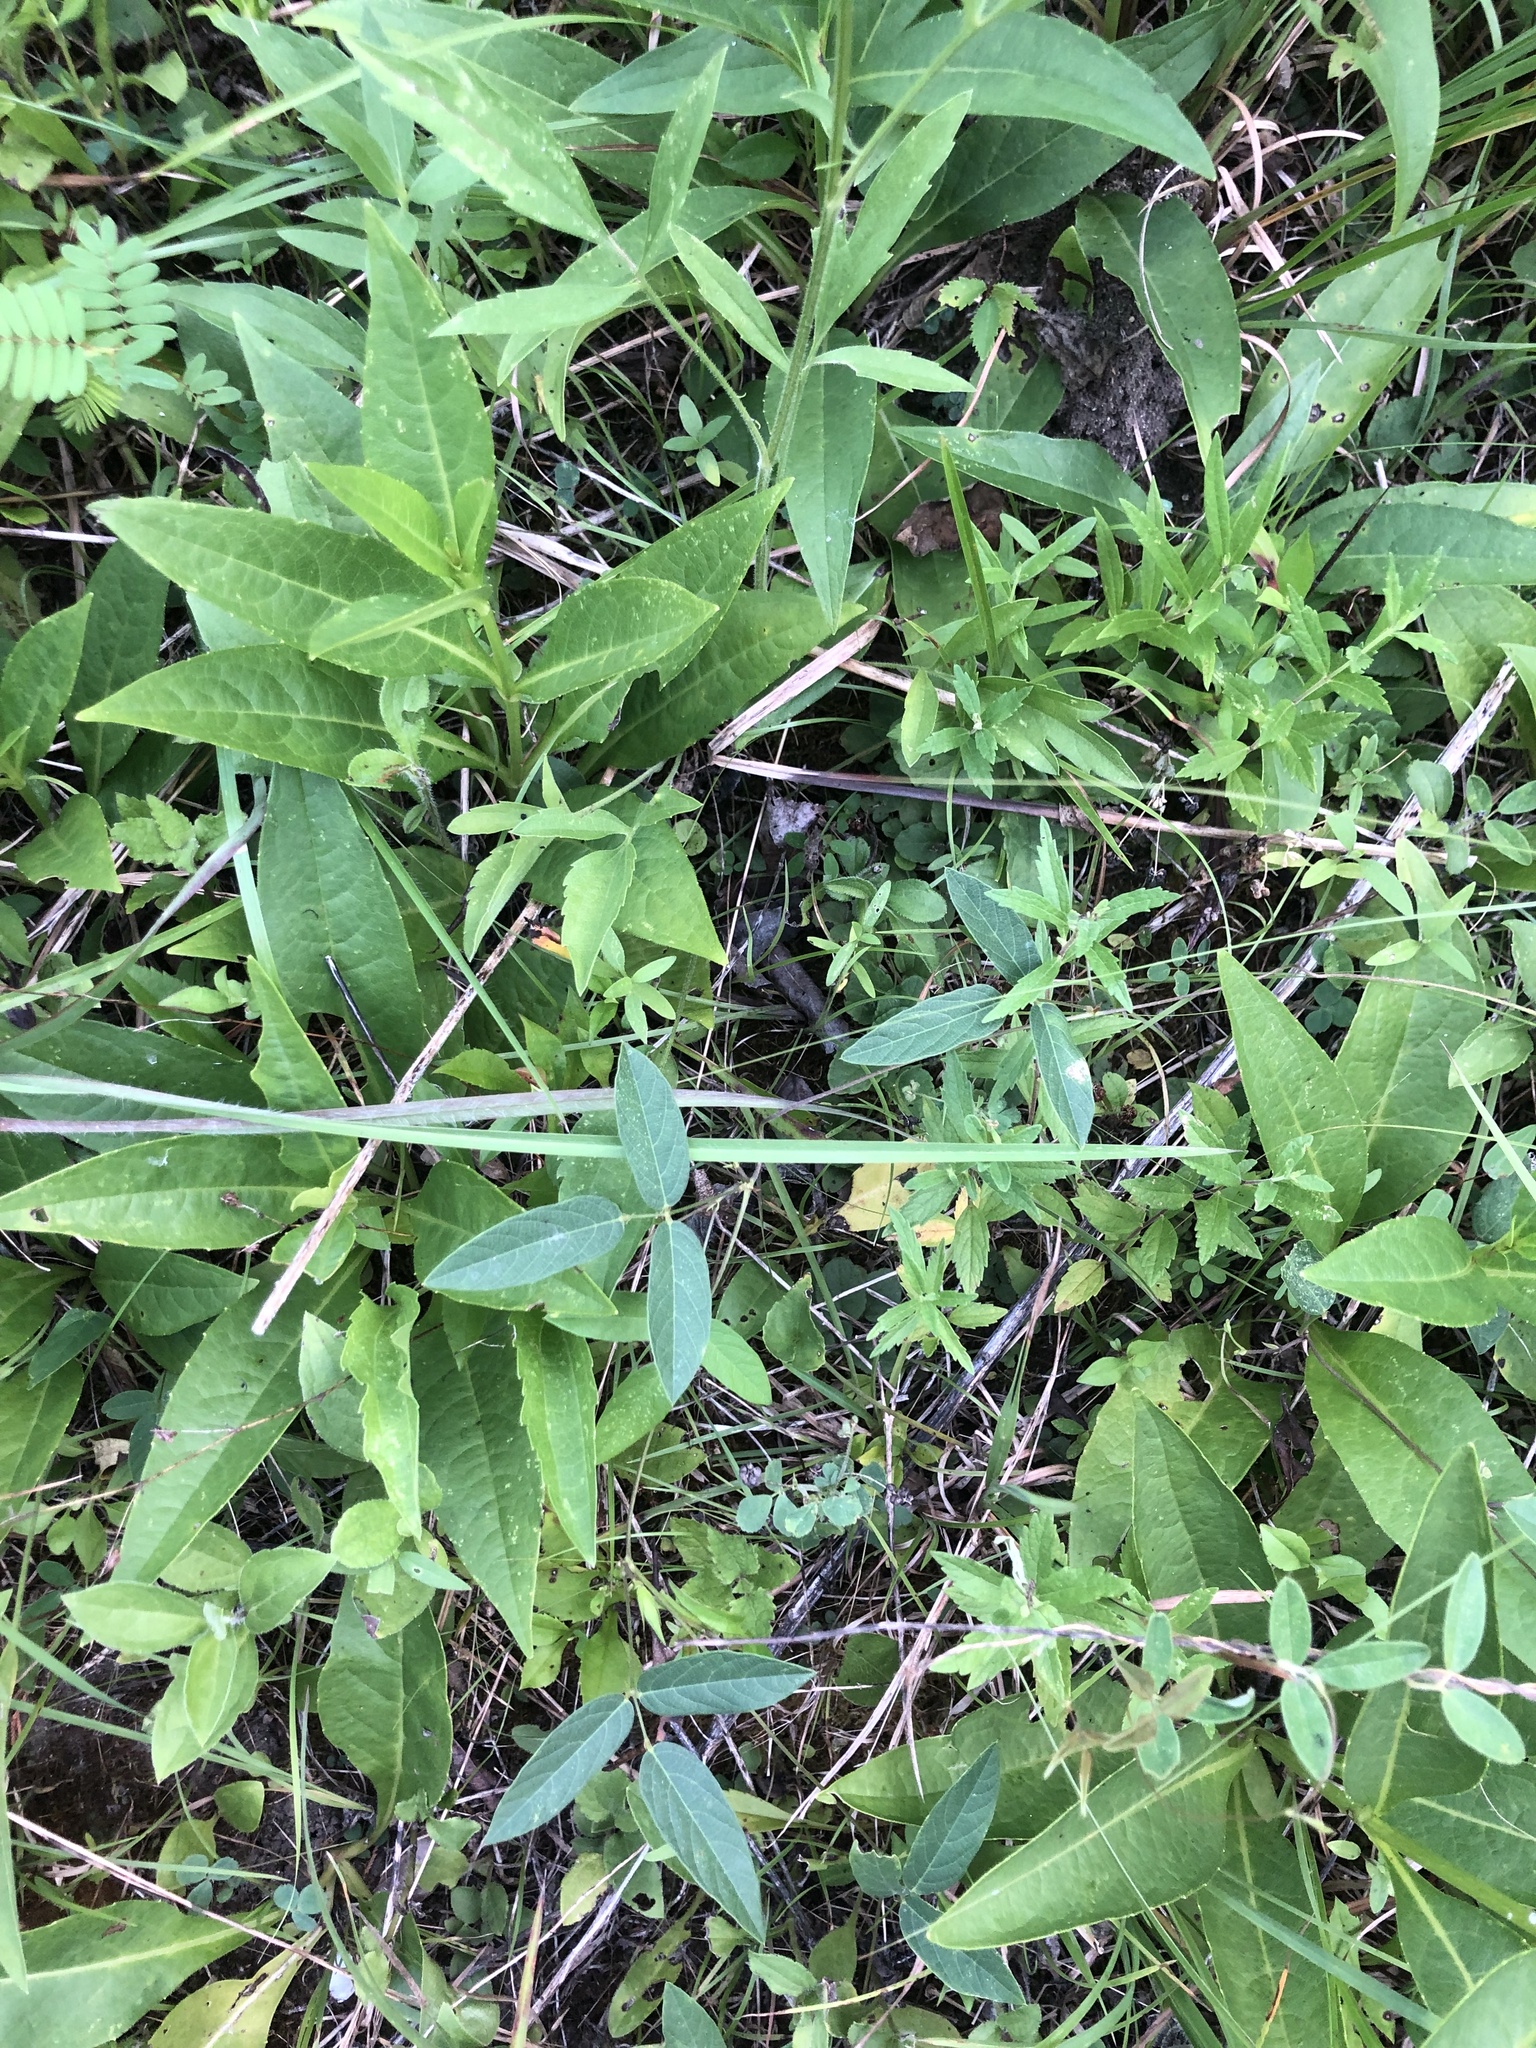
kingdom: Plantae
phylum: Tracheophyta
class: Magnoliopsida
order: Fabales
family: Fabaceae
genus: Centrosema
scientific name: Centrosema virginianum
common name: Butterfly-pea
